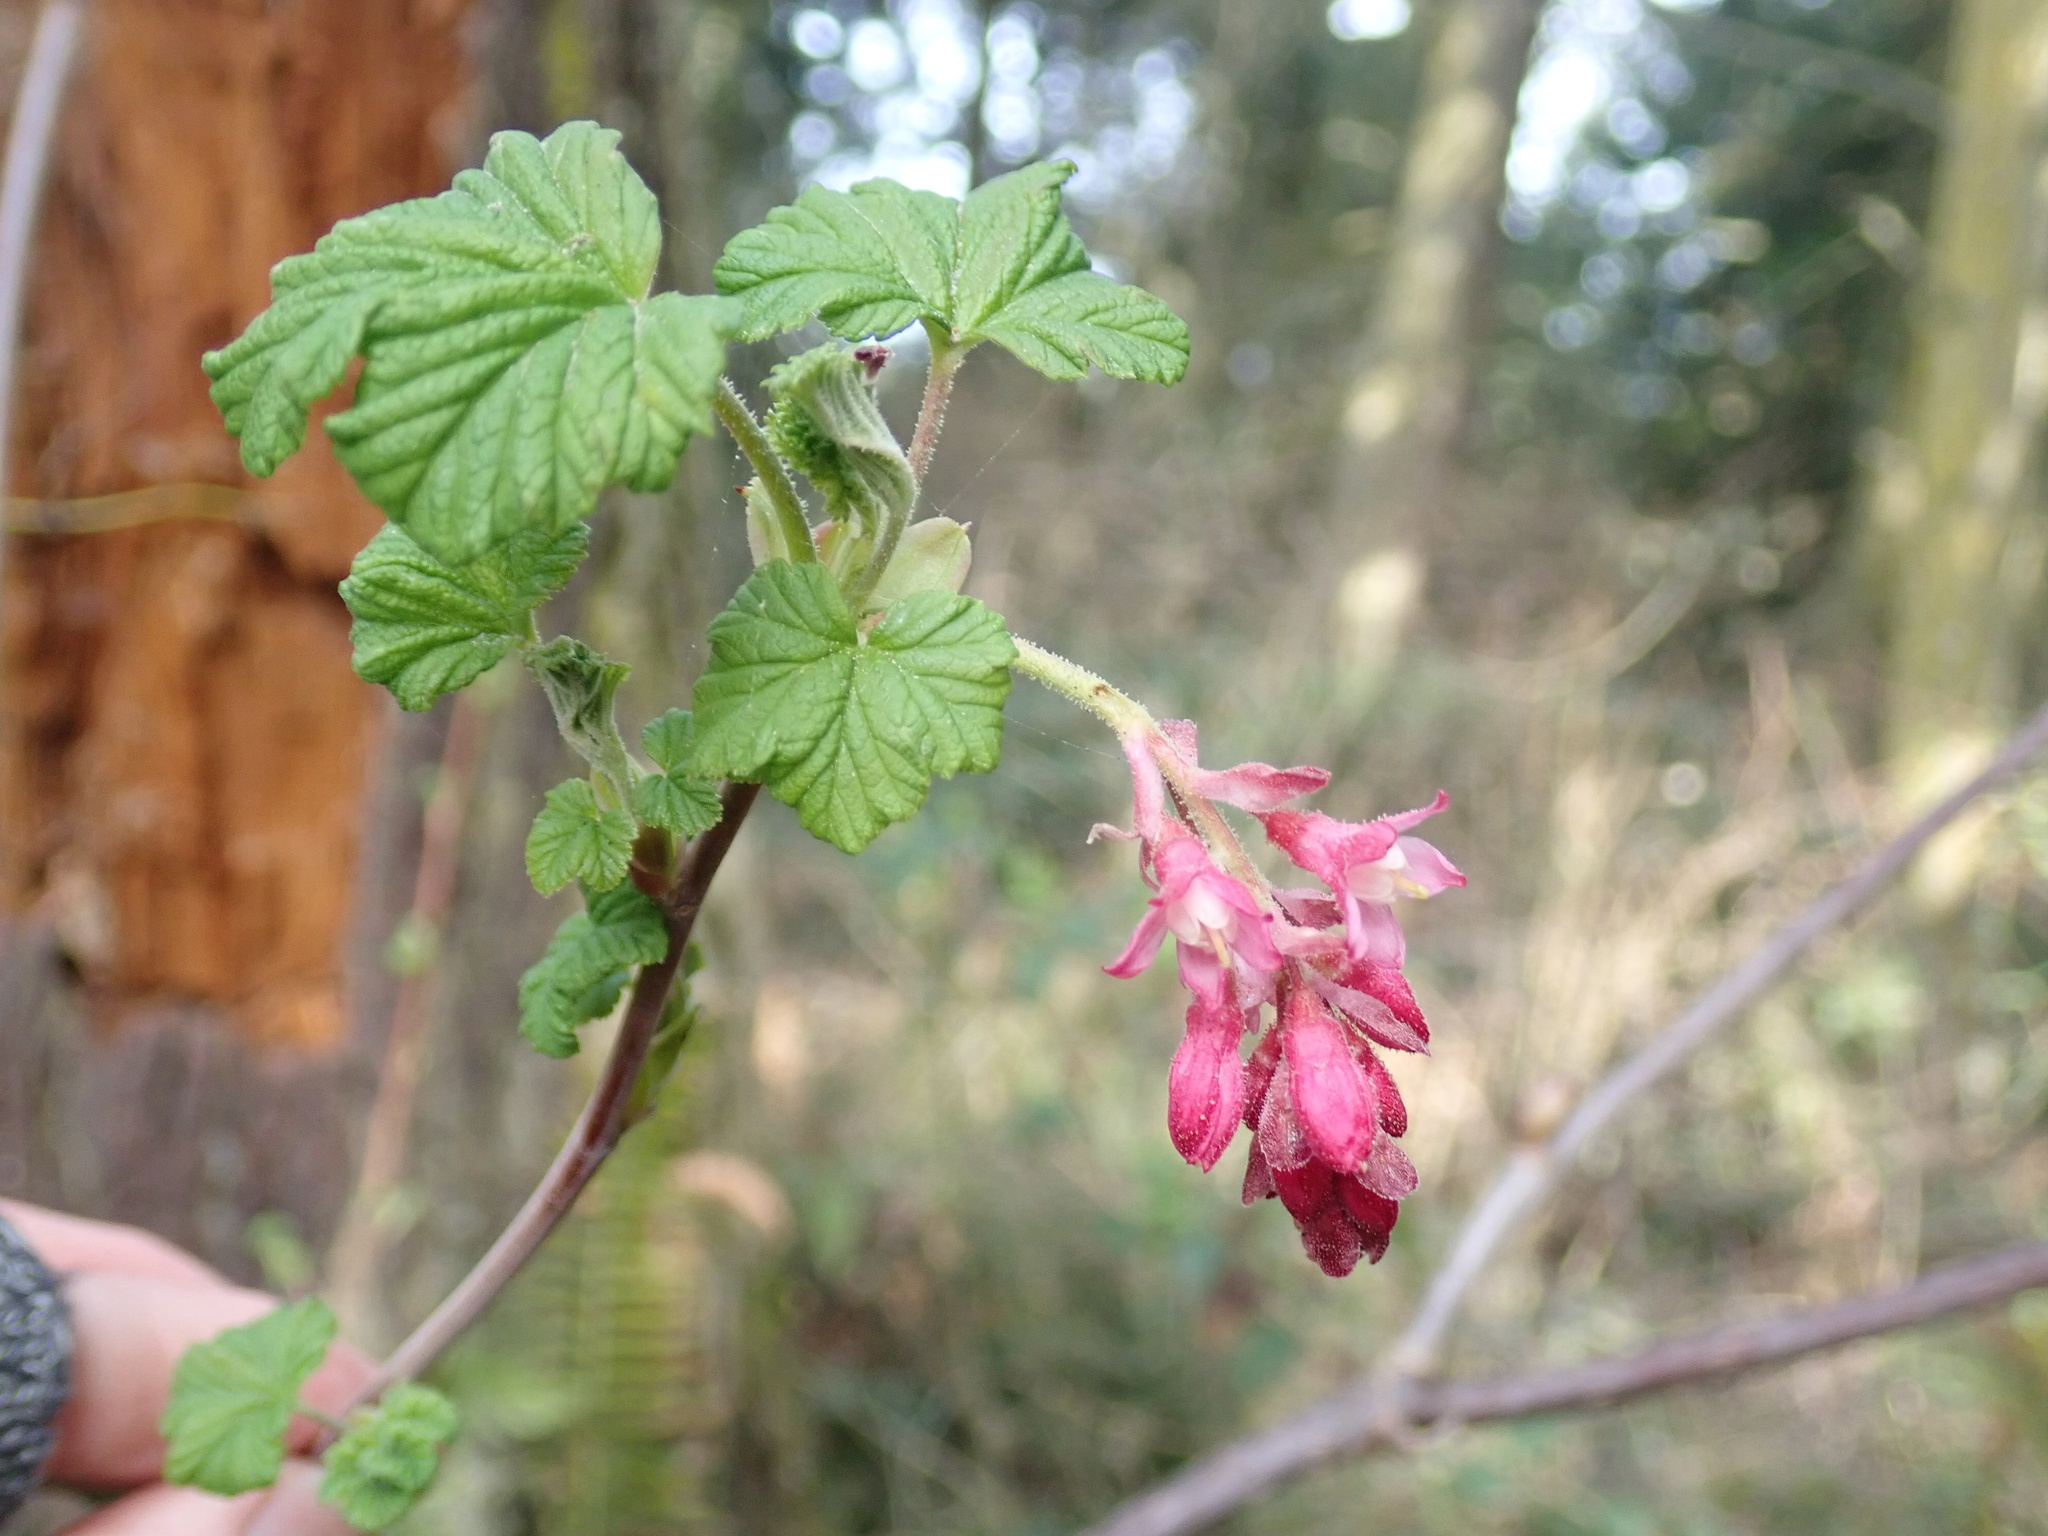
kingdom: Plantae
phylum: Tracheophyta
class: Magnoliopsida
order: Saxifragales
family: Grossulariaceae
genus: Ribes
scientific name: Ribes sanguineum
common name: Flowering currant
